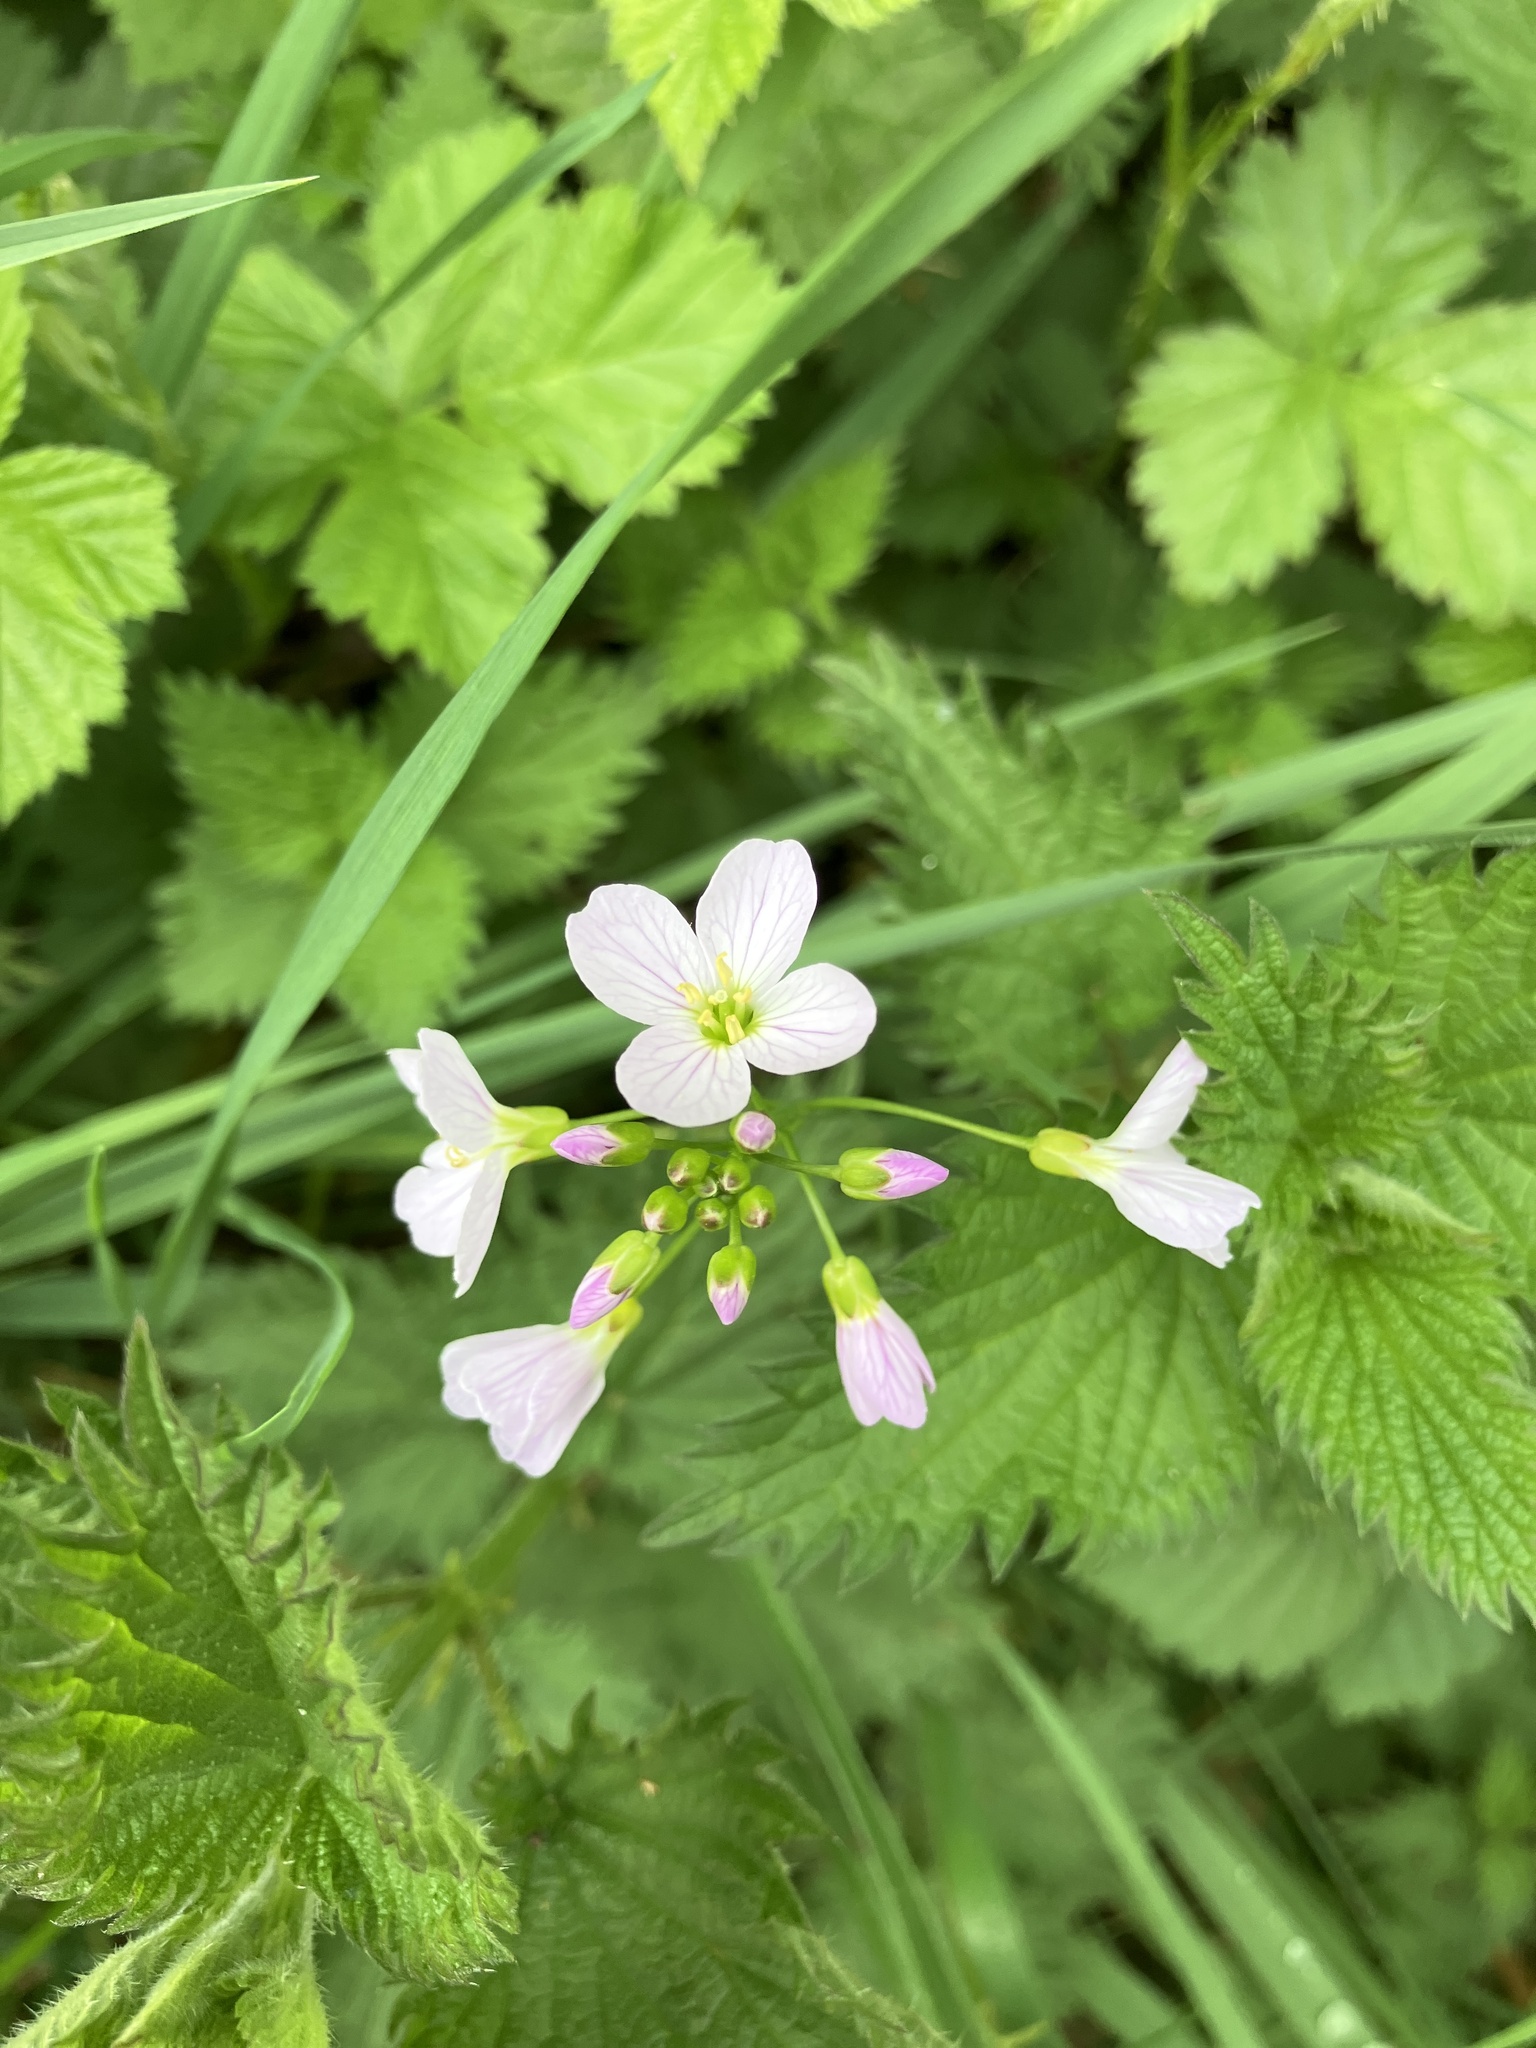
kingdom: Plantae
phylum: Tracheophyta
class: Magnoliopsida
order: Brassicales
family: Brassicaceae
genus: Cardamine
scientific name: Cardamine pratensis
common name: Cuckoo flower
